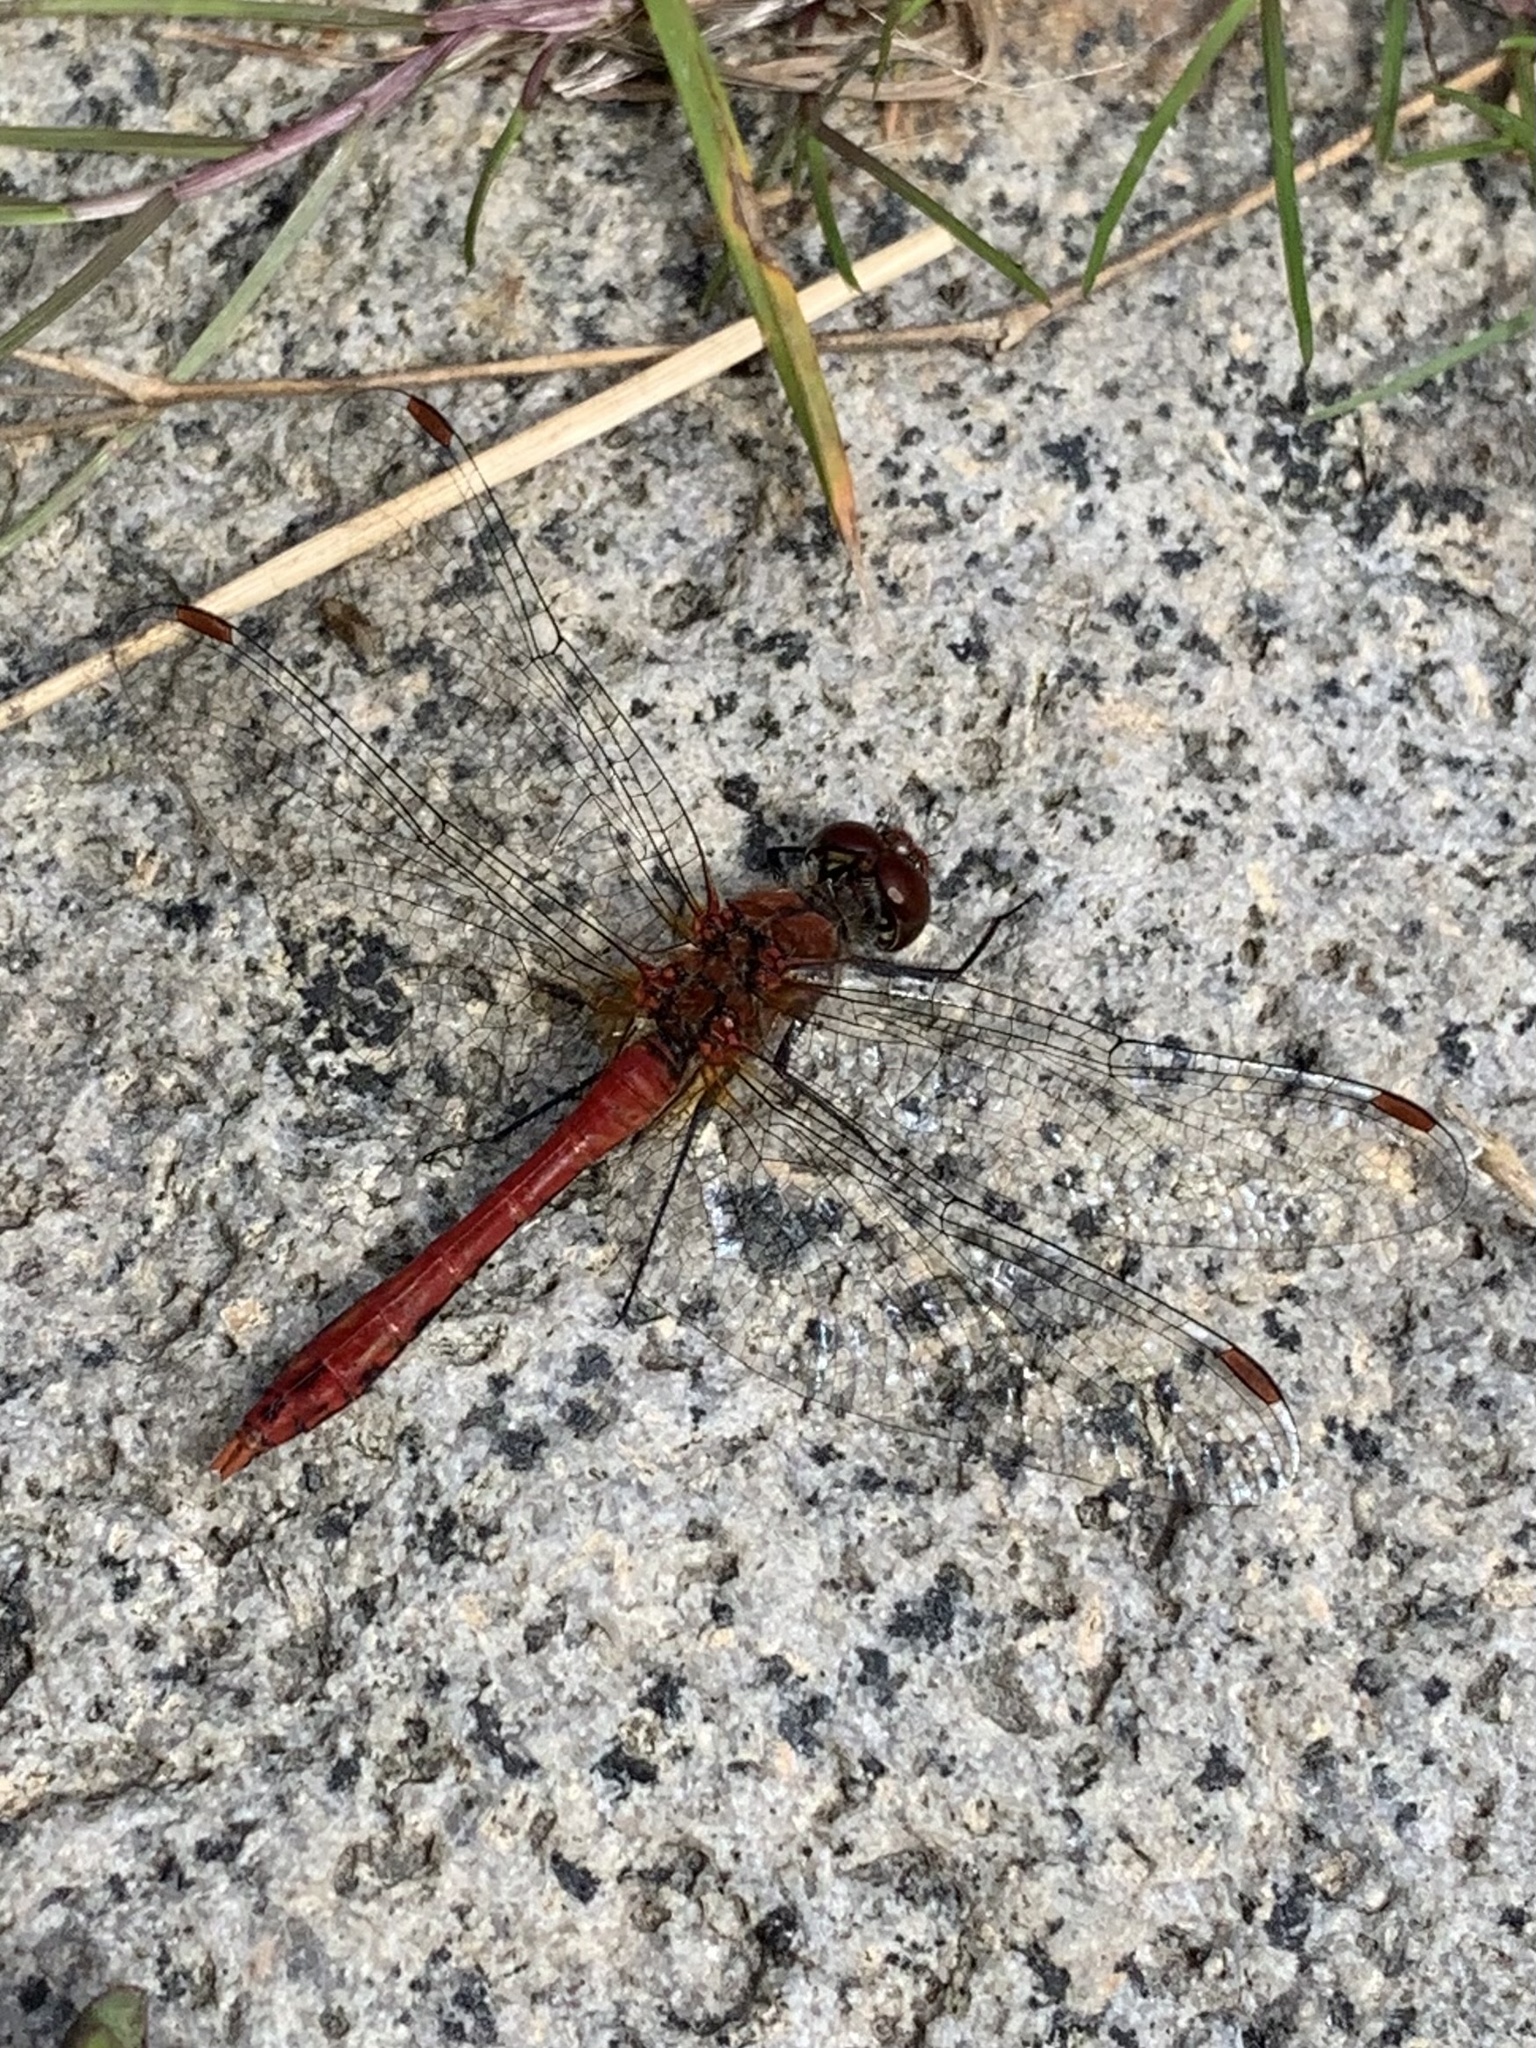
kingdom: Animalia
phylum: Arthropoda
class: Insecta
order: Odonata
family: Libellulidae
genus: Sympetrum
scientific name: Sympetrum sanguineum
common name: Ruddy darter
